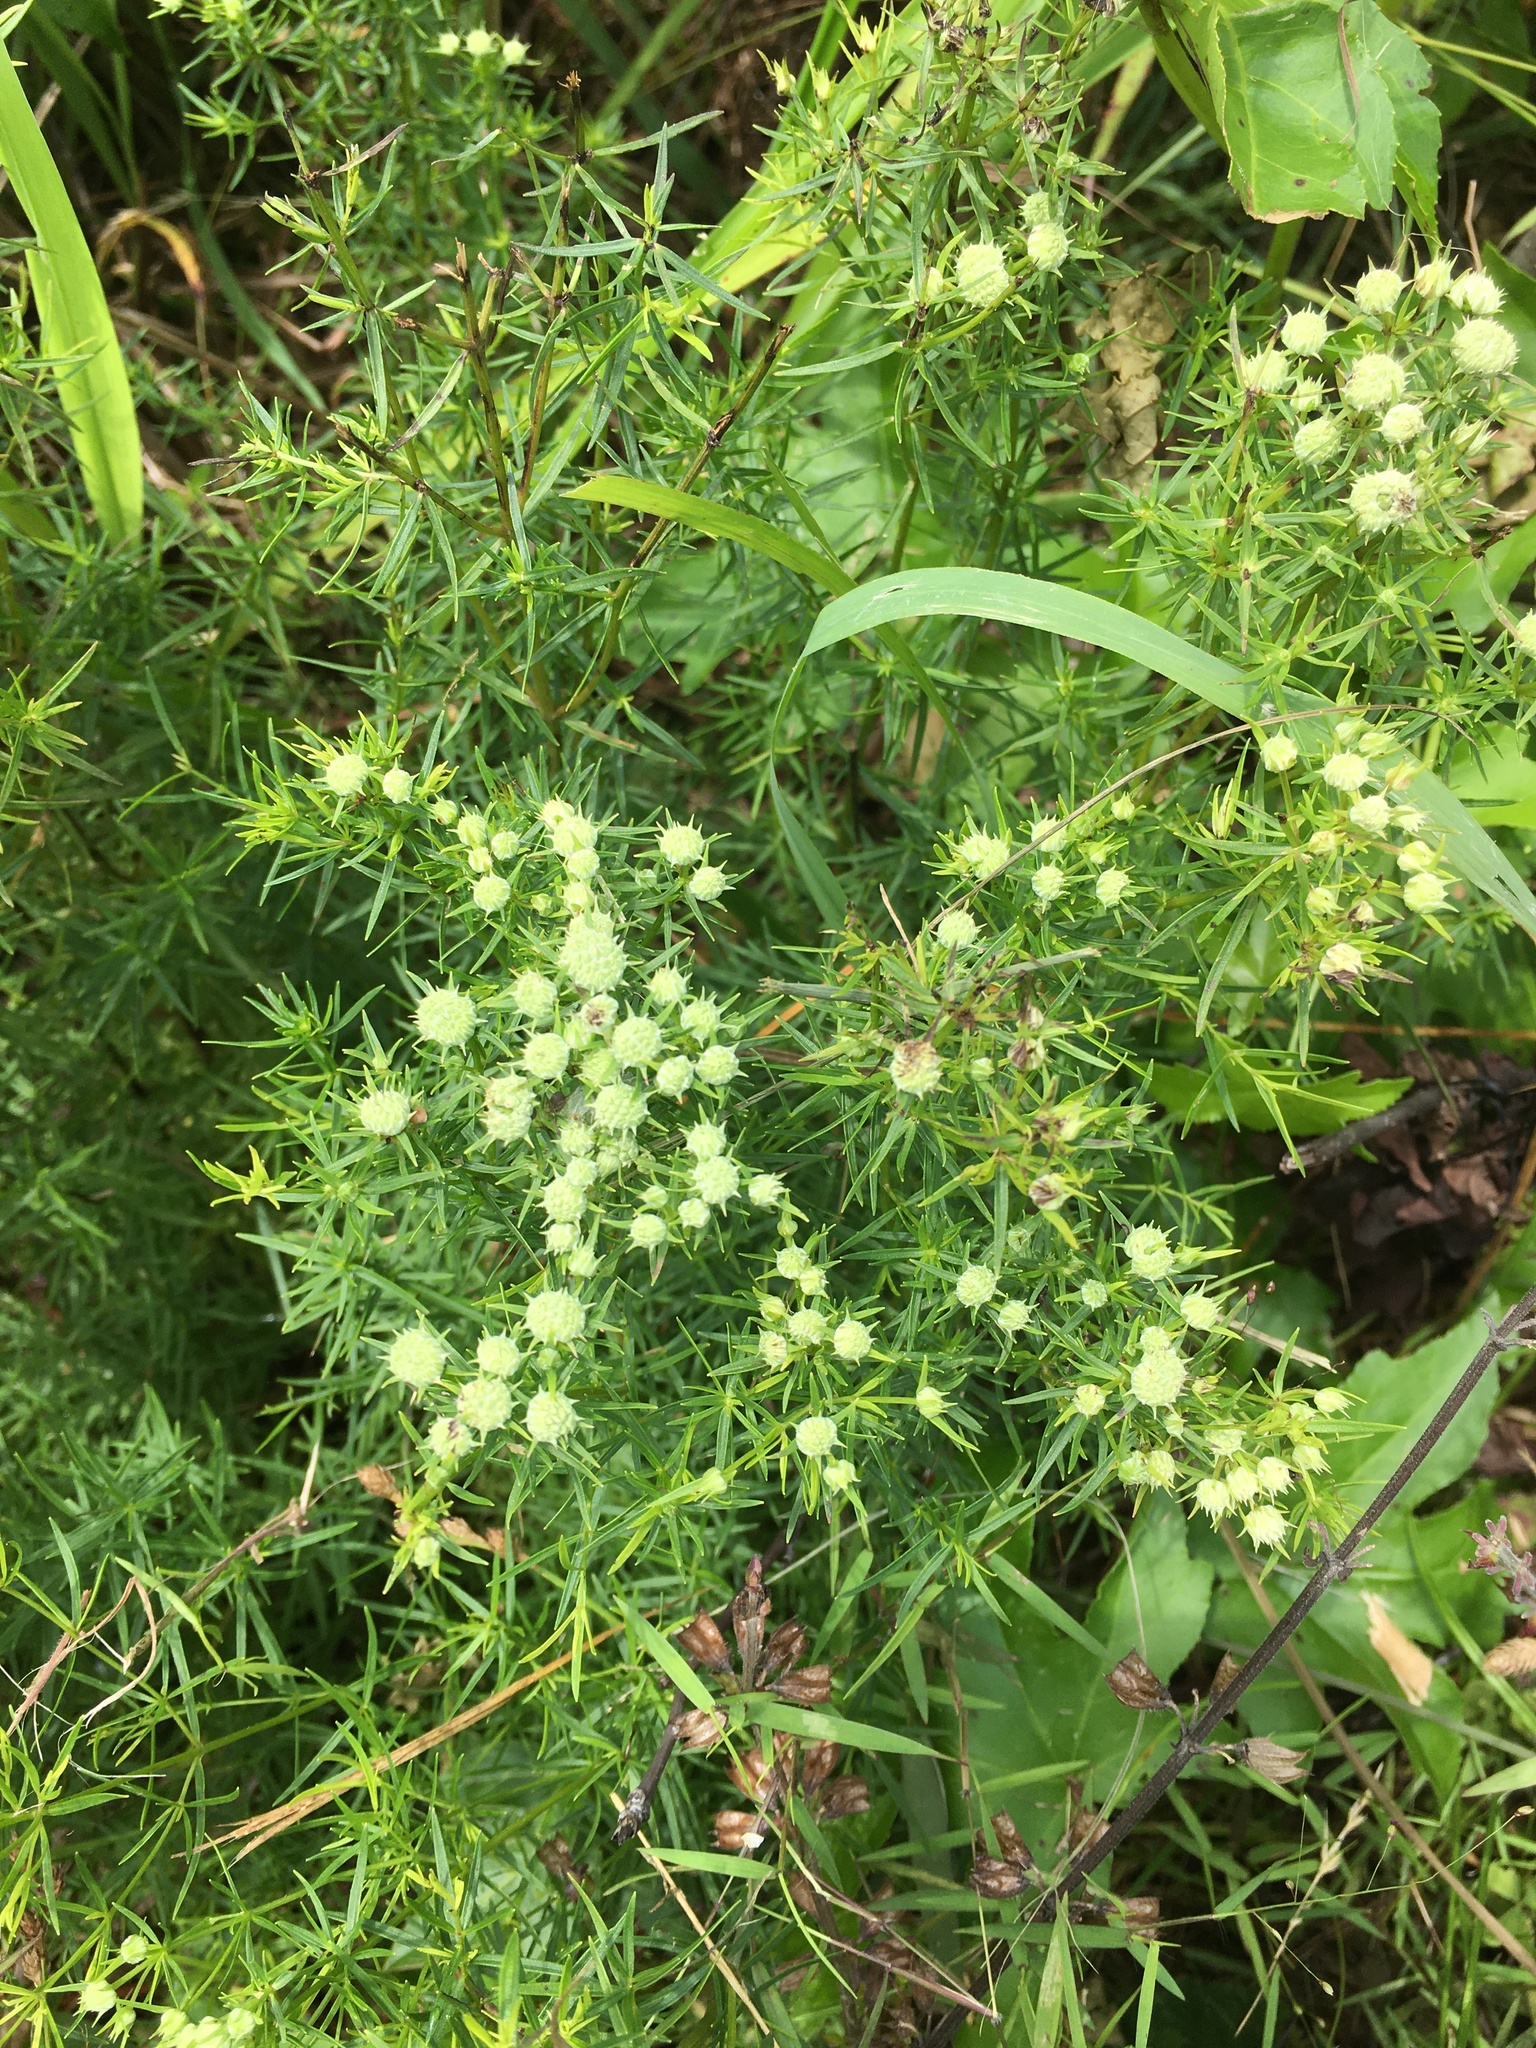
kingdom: Plantae
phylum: Tracheophyta
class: Magnoliopsida
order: Lamiales
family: Lamiaceae
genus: Pycnanthemum
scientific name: Pycnanthemum tenuifolium
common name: Narrow-leaf mountain-mint
